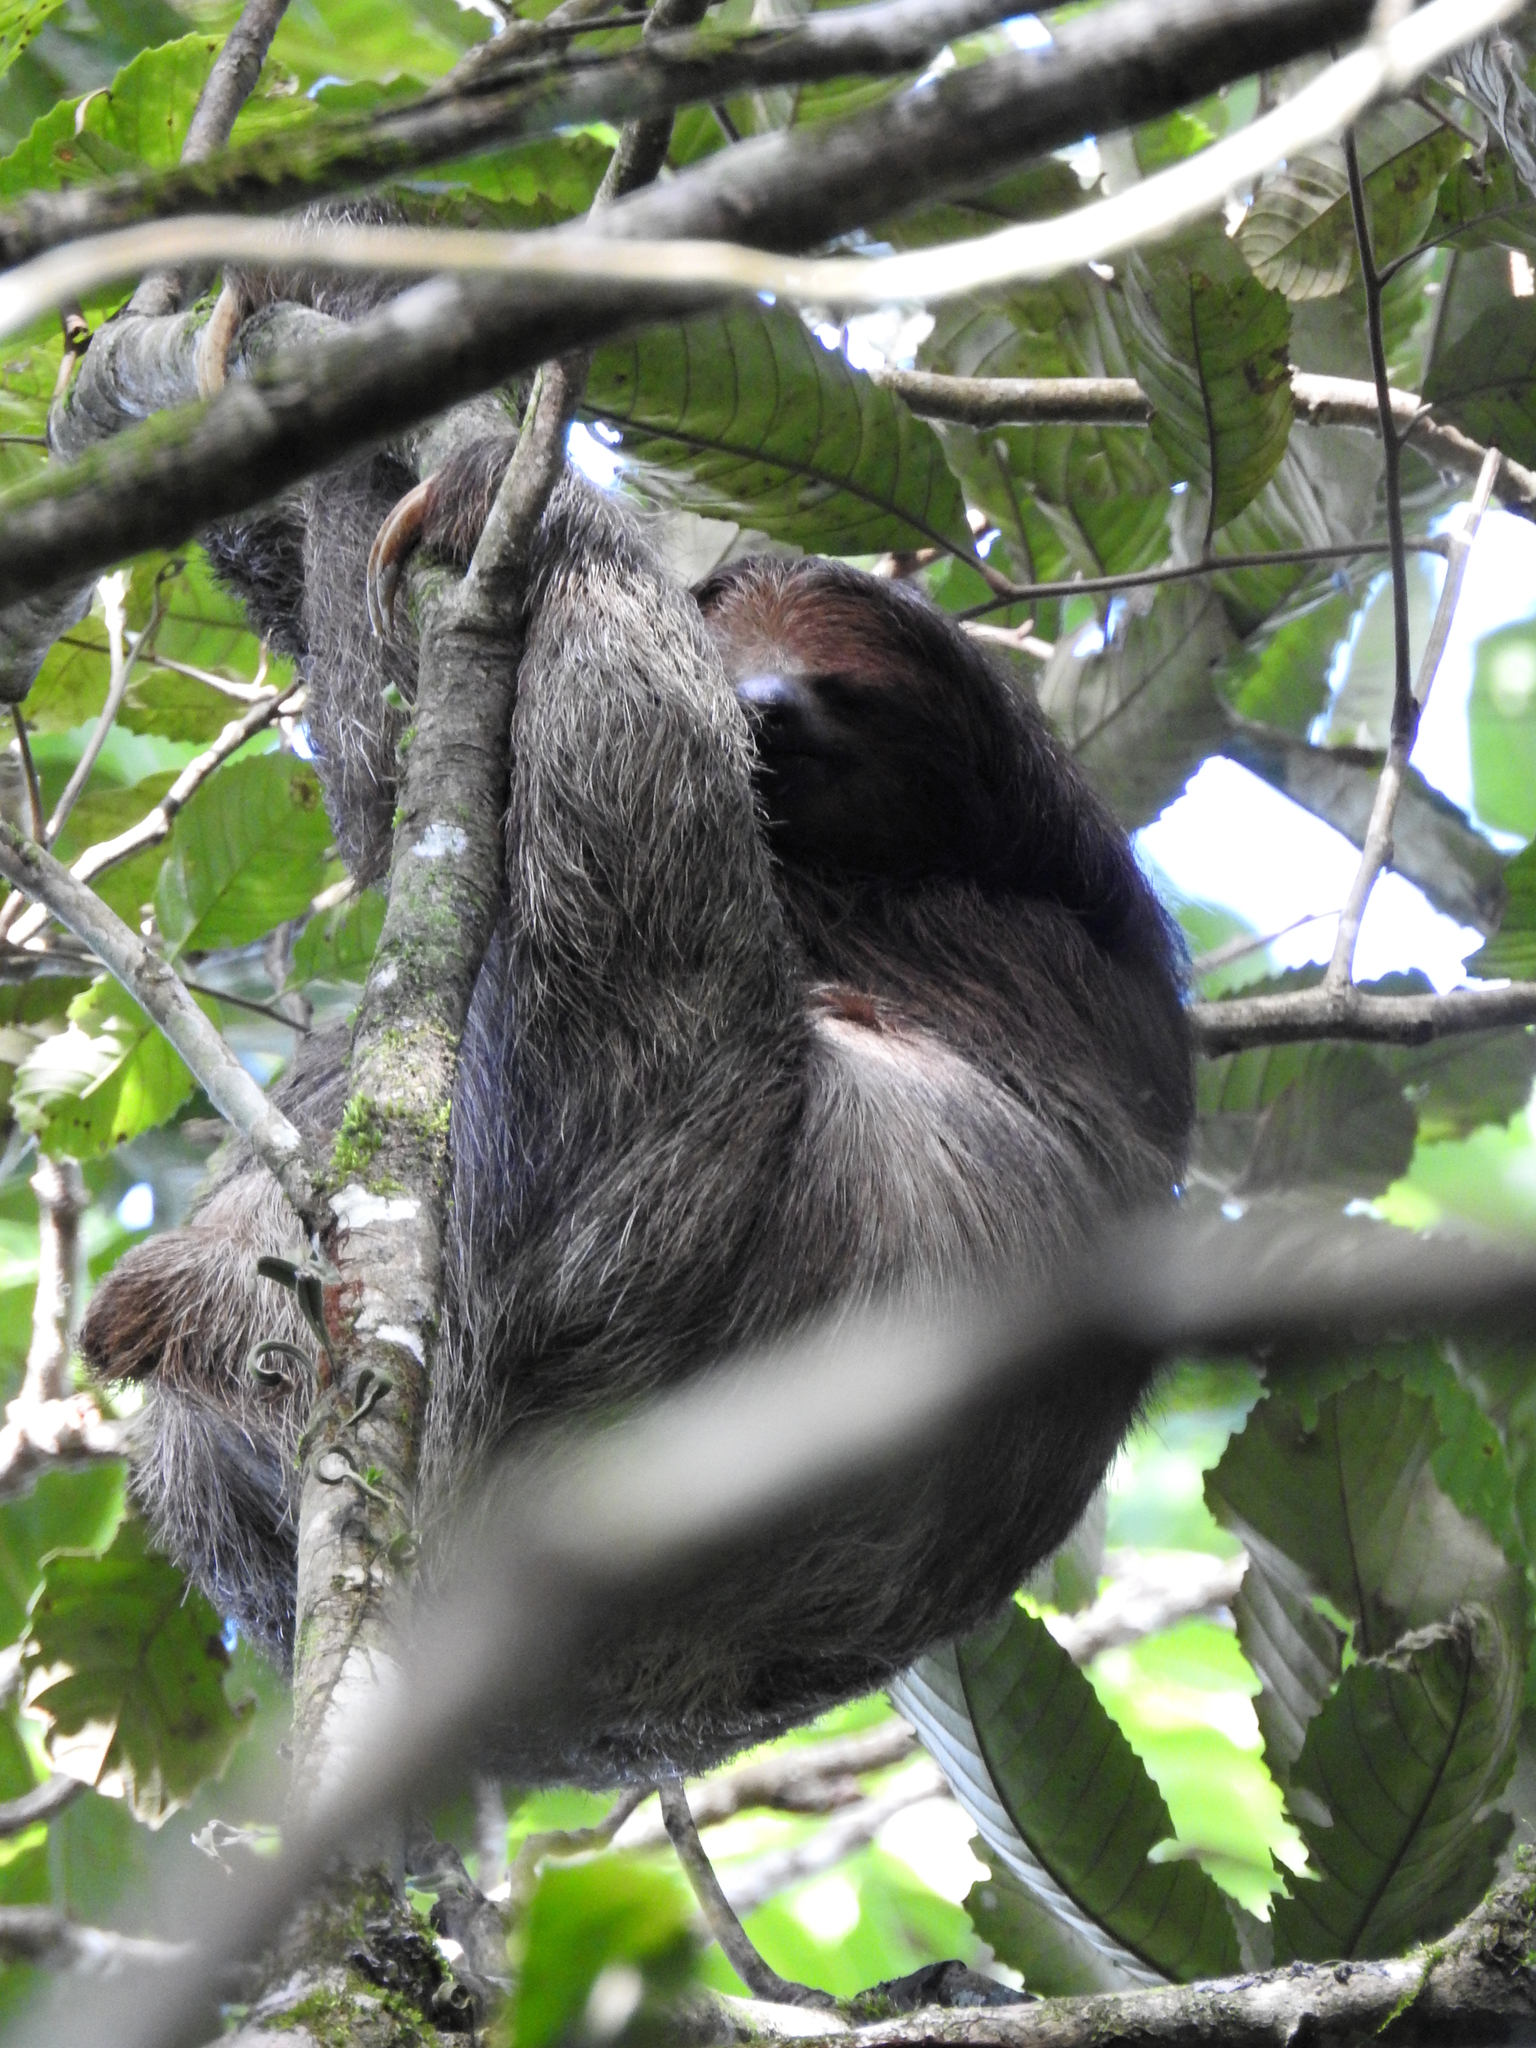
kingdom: Animalia
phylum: Chordata
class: Mammalia
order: Pilosa
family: Bradypodidae
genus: Bradypus
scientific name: Bradypus variegatus
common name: Brown-throated three-toed sloth
